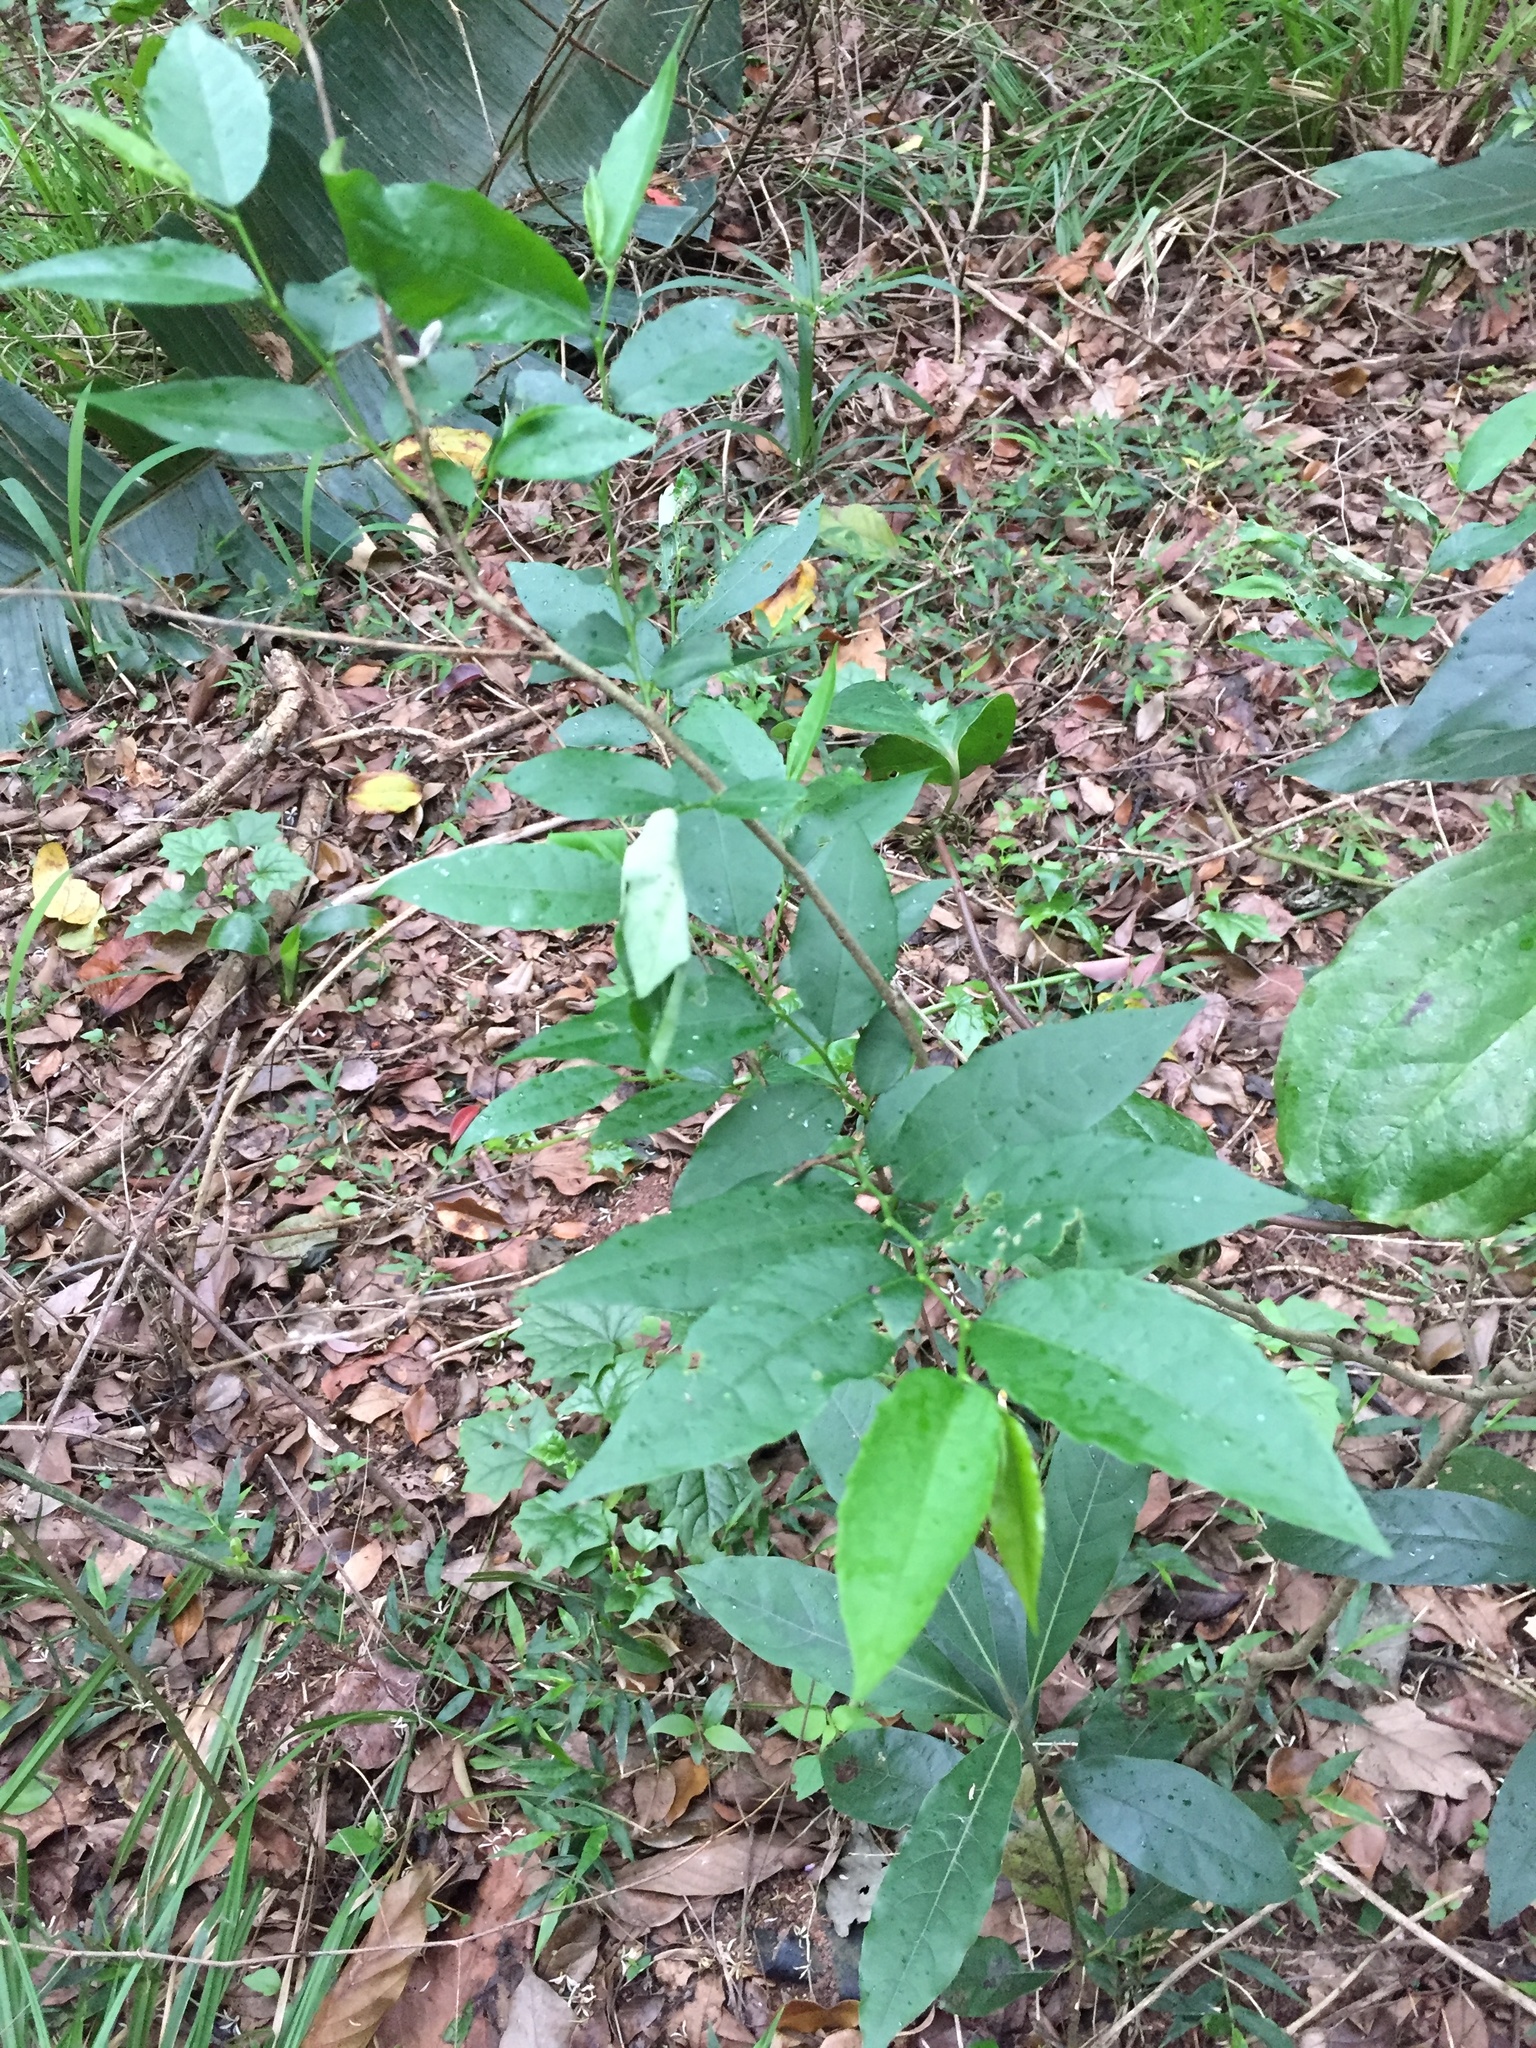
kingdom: Plantae
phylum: Tracheophyta
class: Magnoliopsida
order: Malpighiales
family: Euphorbiaceae
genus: Sclerocroton
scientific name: Sclerocroton integerrimus
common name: Duiker berry
